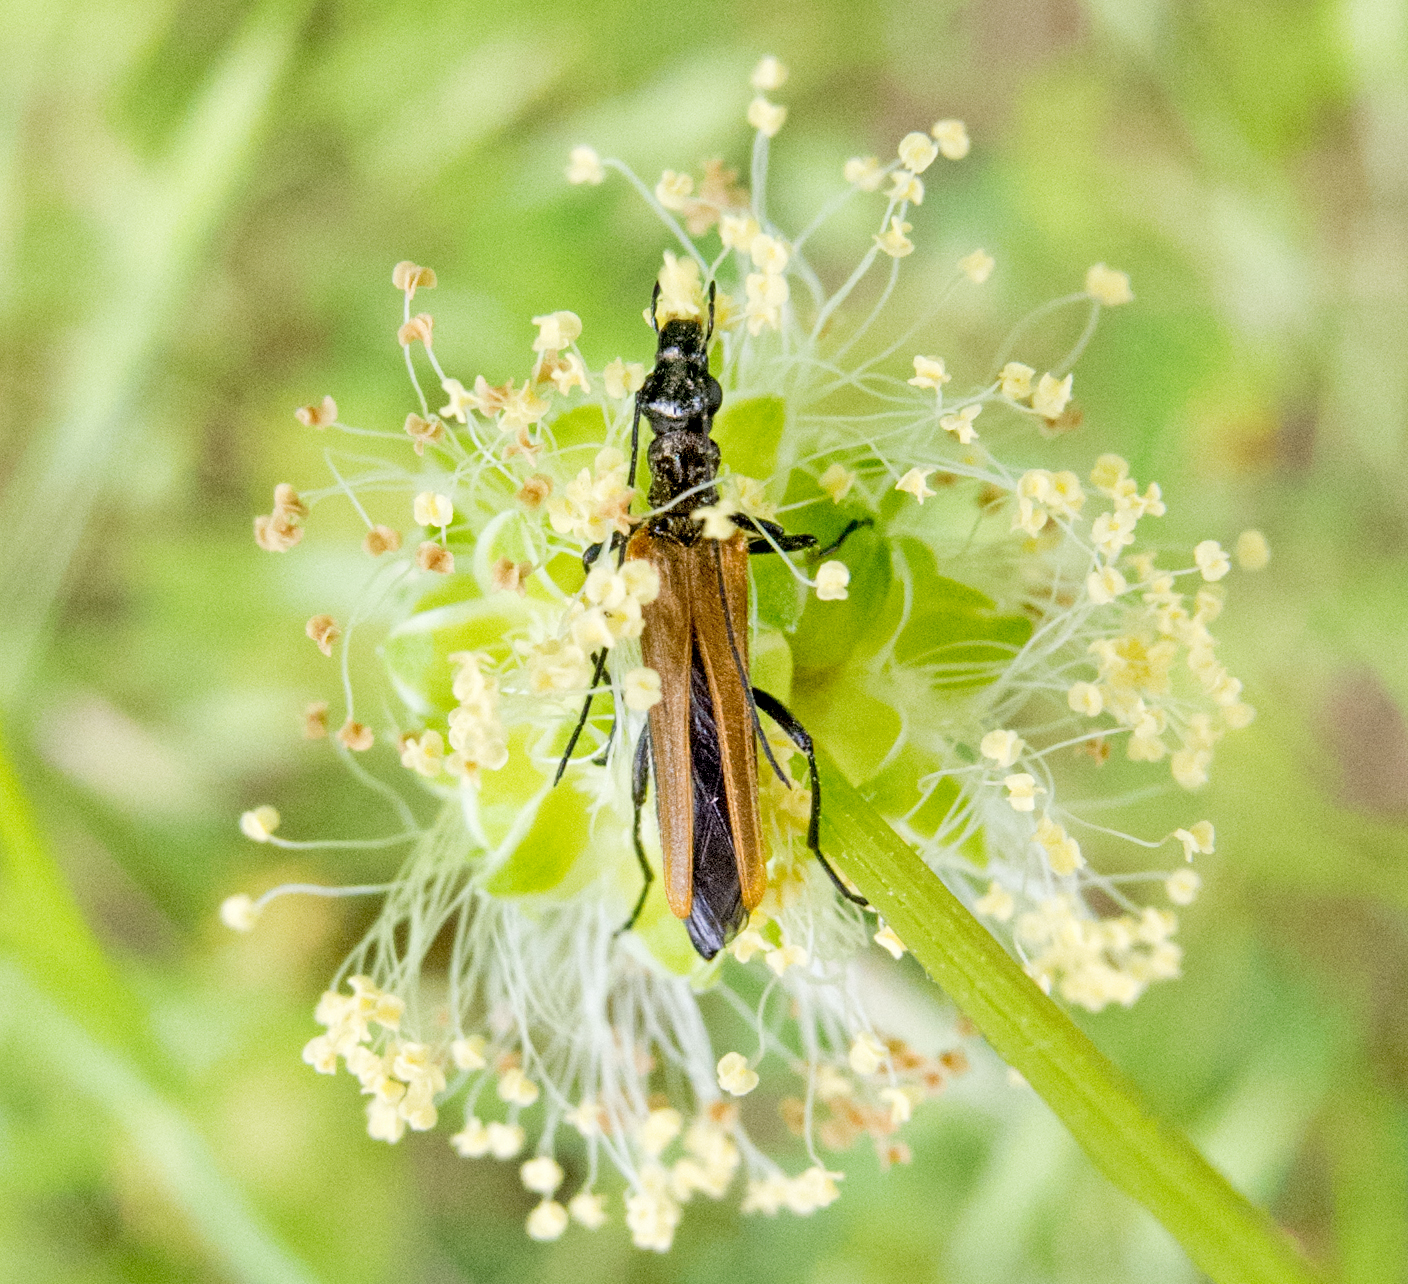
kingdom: Animalia
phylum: Arthropoda
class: Insecta
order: Coleoptera
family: Oedemeridae
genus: Oedemera
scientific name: Oedemera femorata
